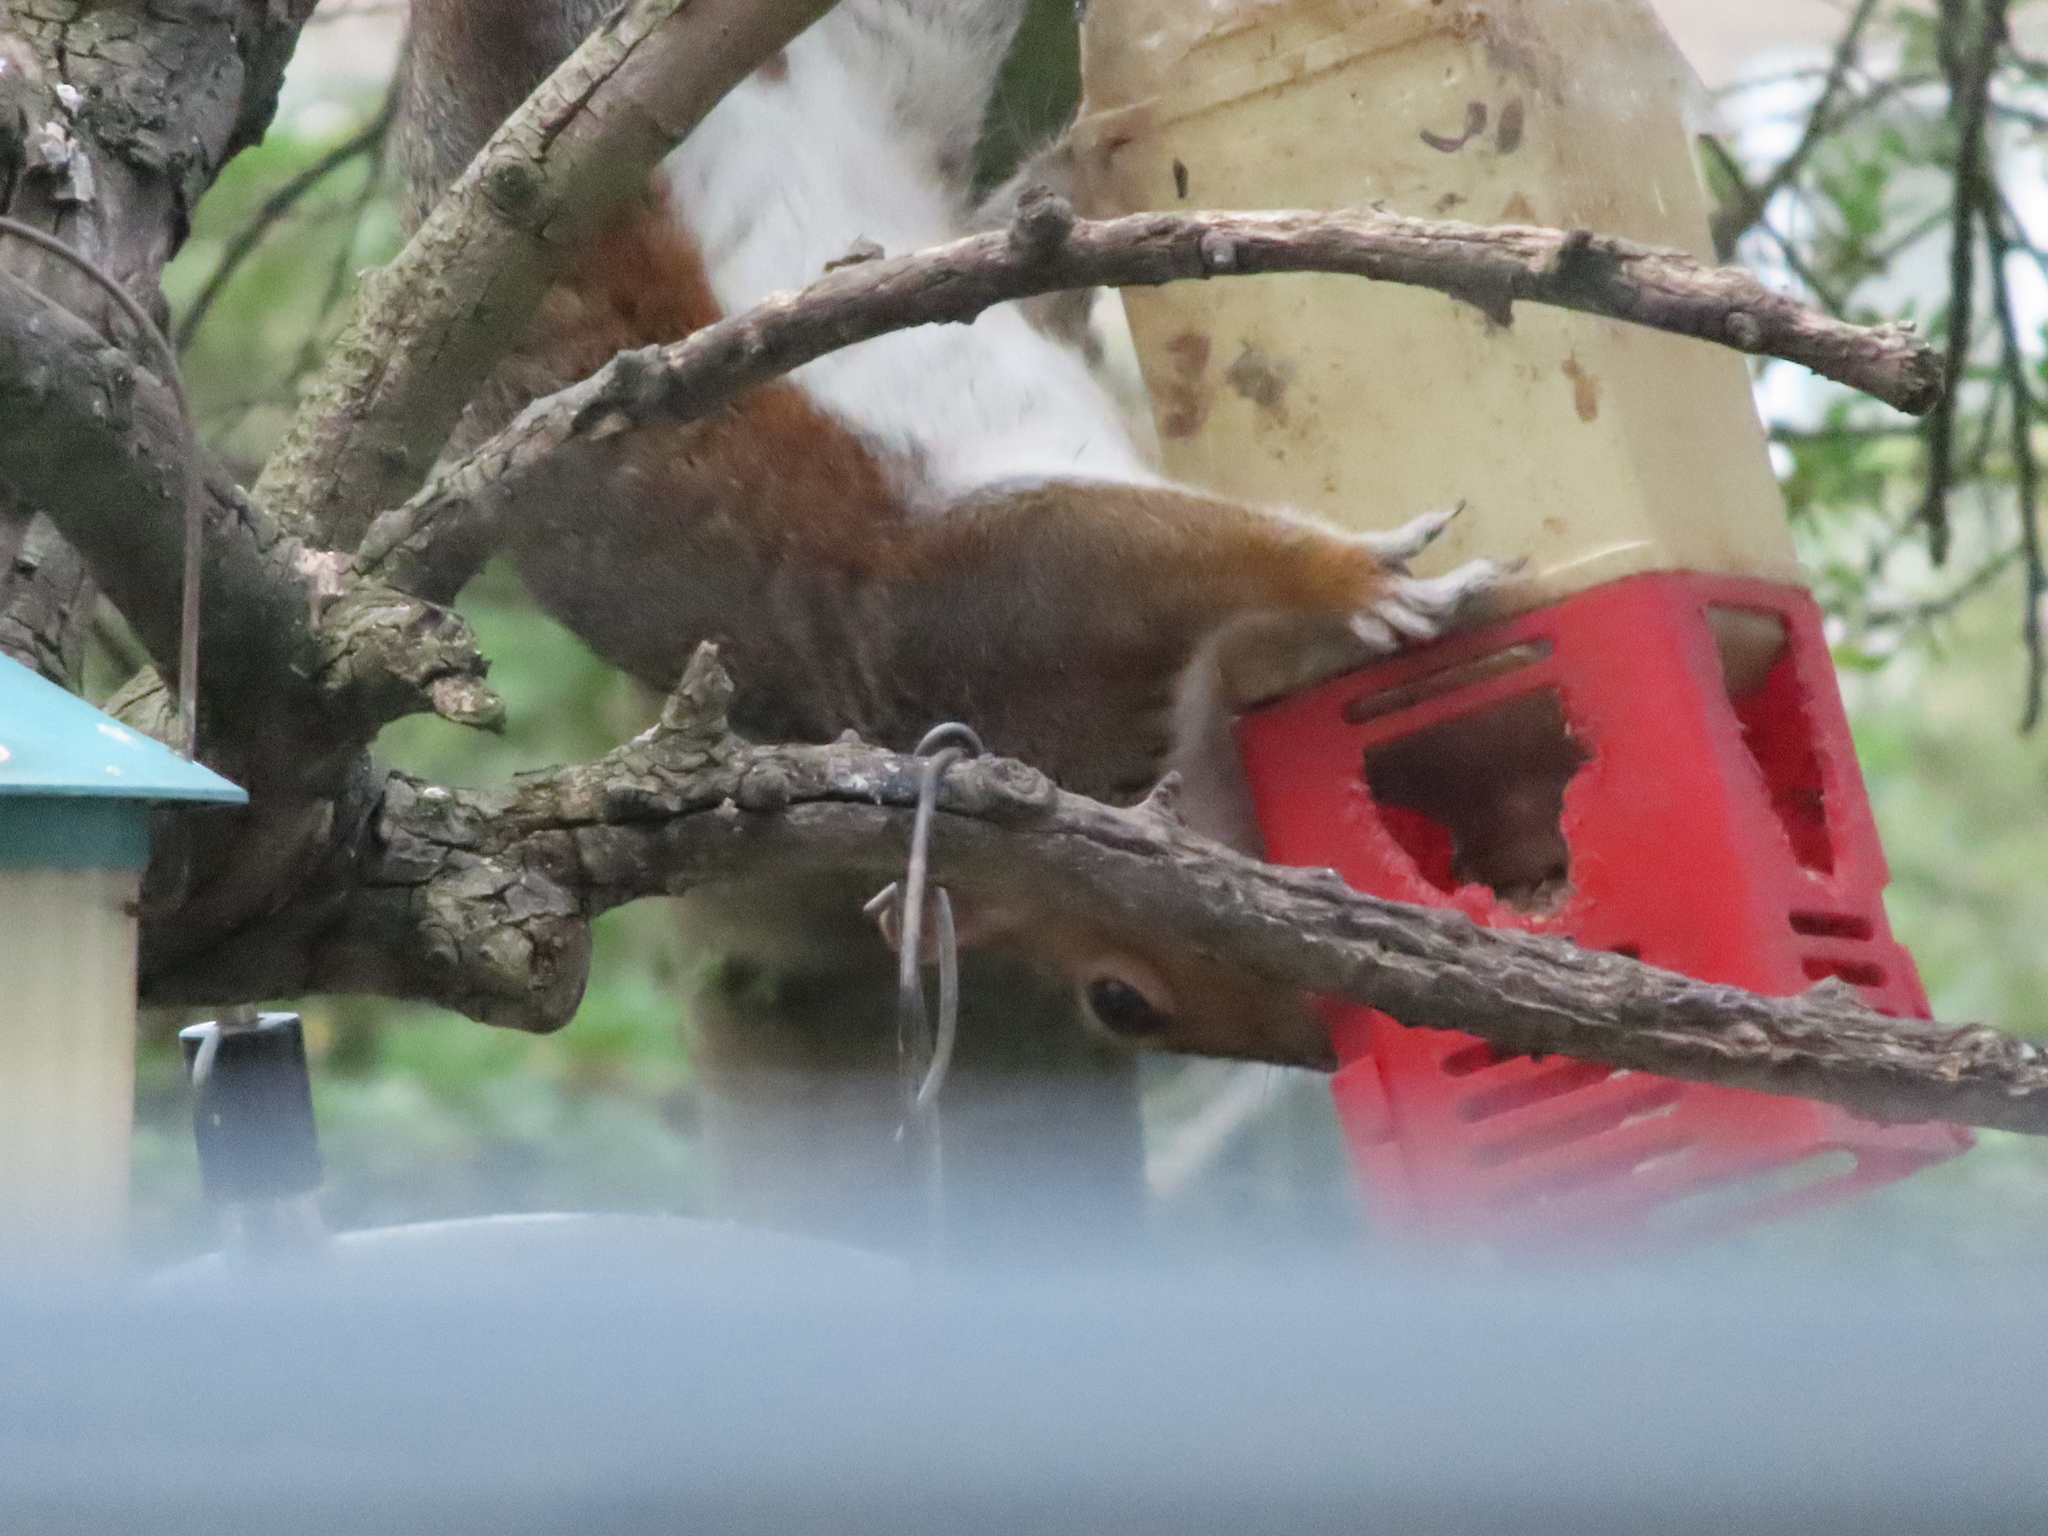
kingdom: Animalia
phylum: Chordata
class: Mammalia
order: Rodentia
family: Sciuridae
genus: Sciurus
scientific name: Sciurus carolinensis
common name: Eastern gray squirrel
